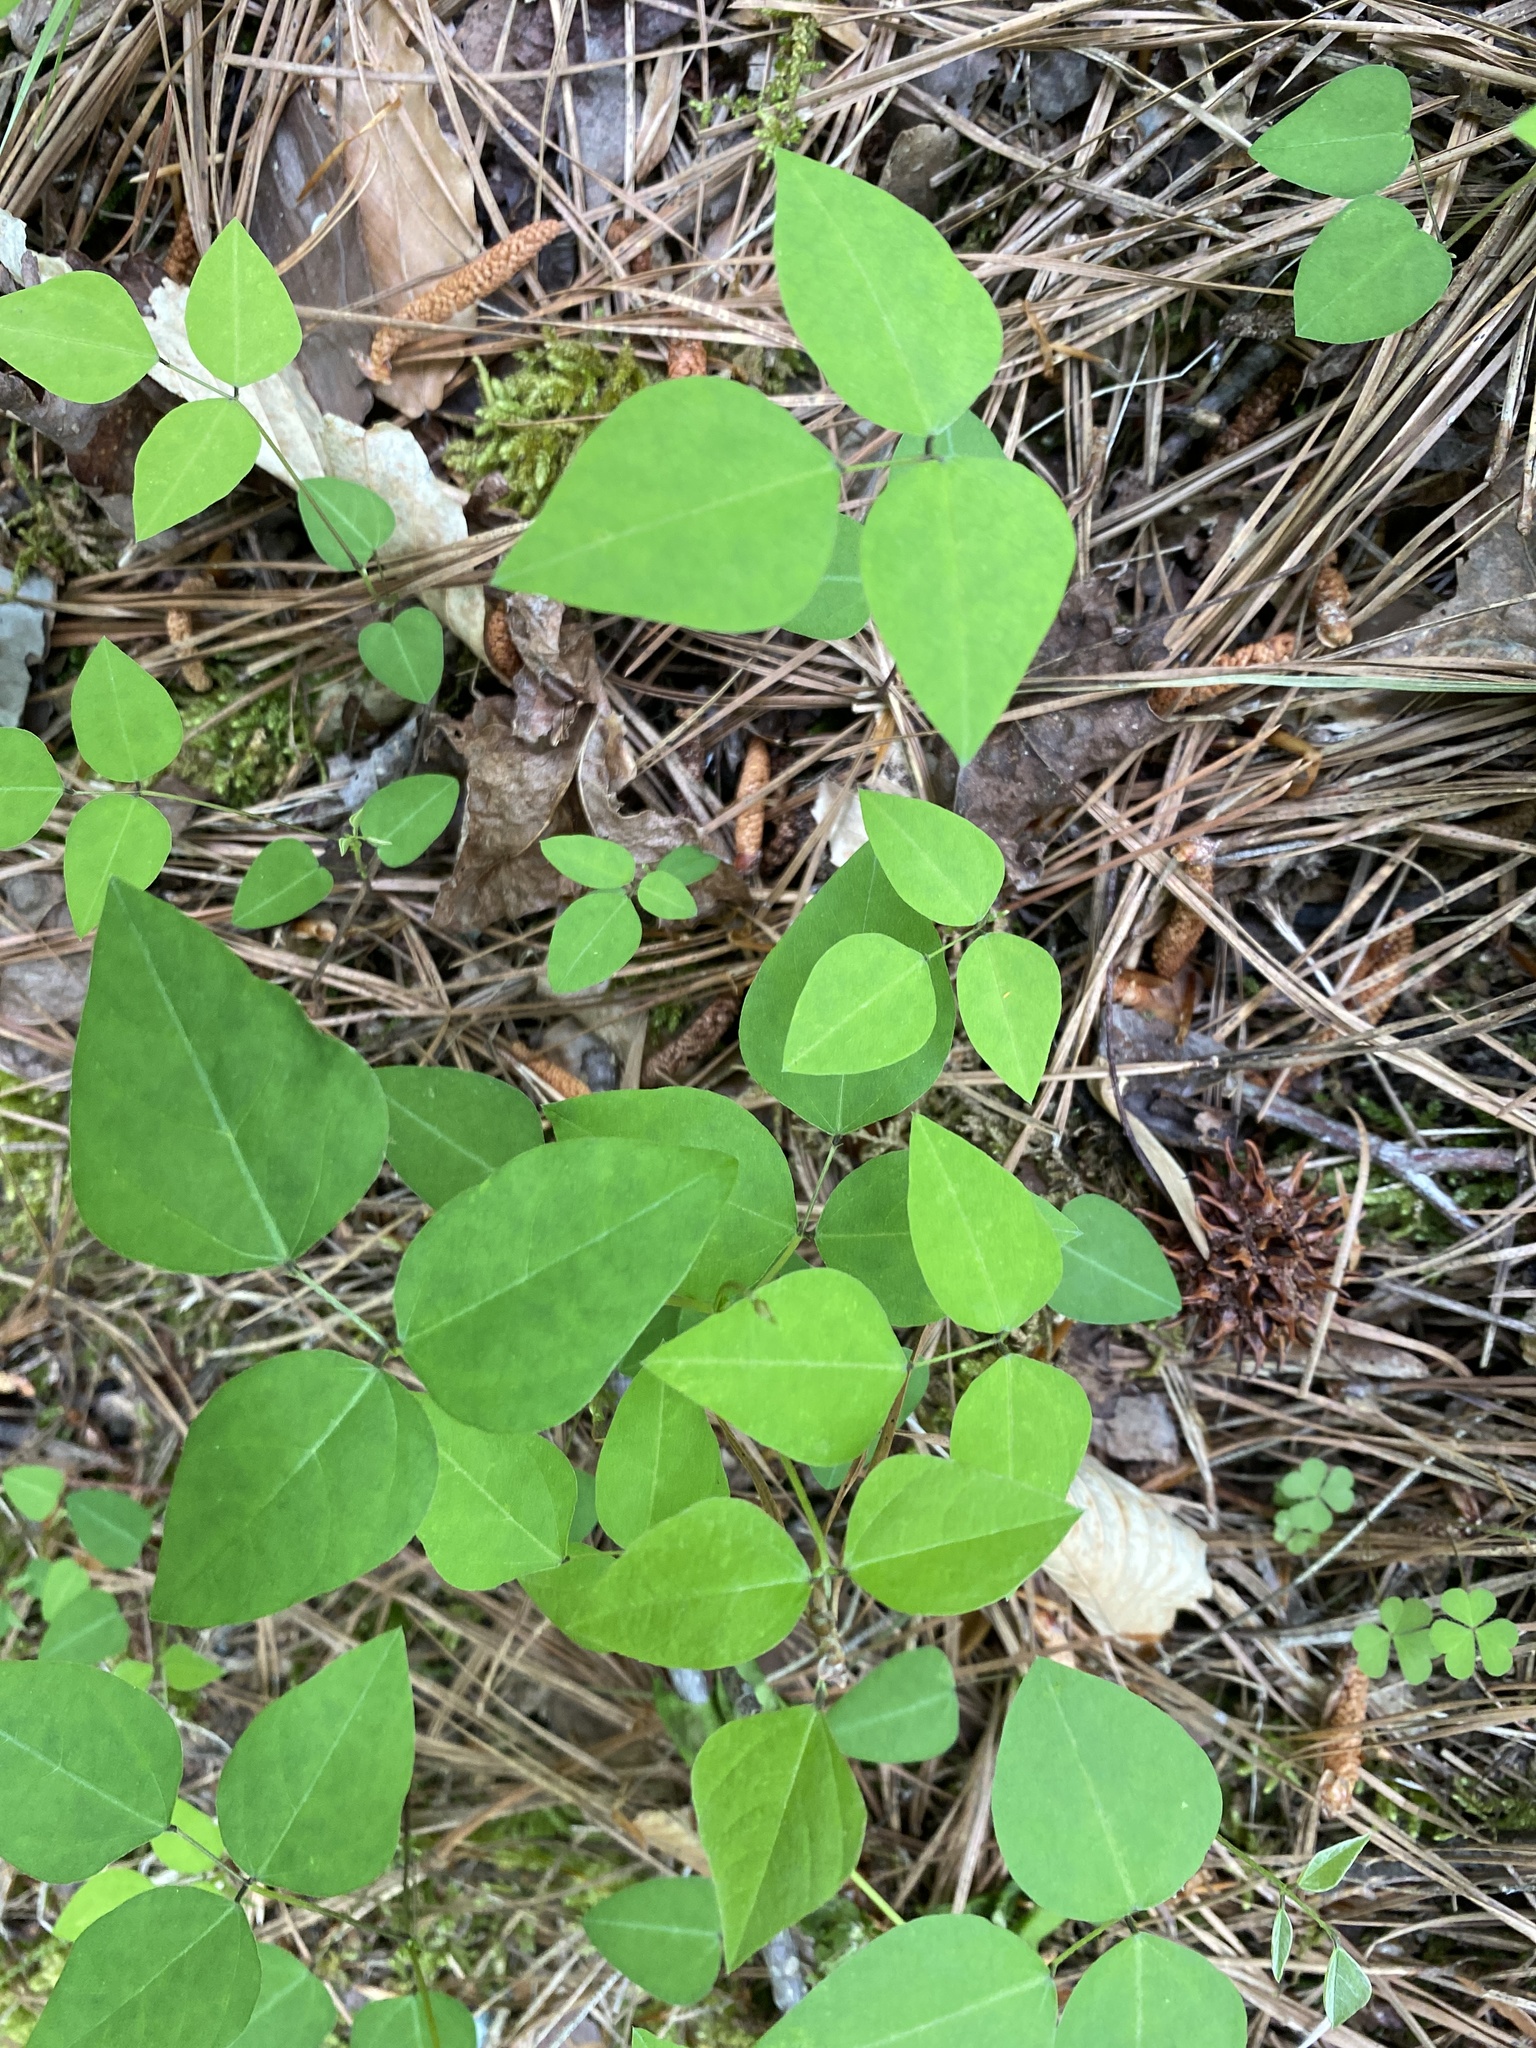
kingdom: Plantae
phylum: Tracheophyta
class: Magnoliopsida
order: Fabales
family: Fabaceae
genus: Amphicarpaea
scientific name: Amphicarpaea bracteata
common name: American hog peanut
